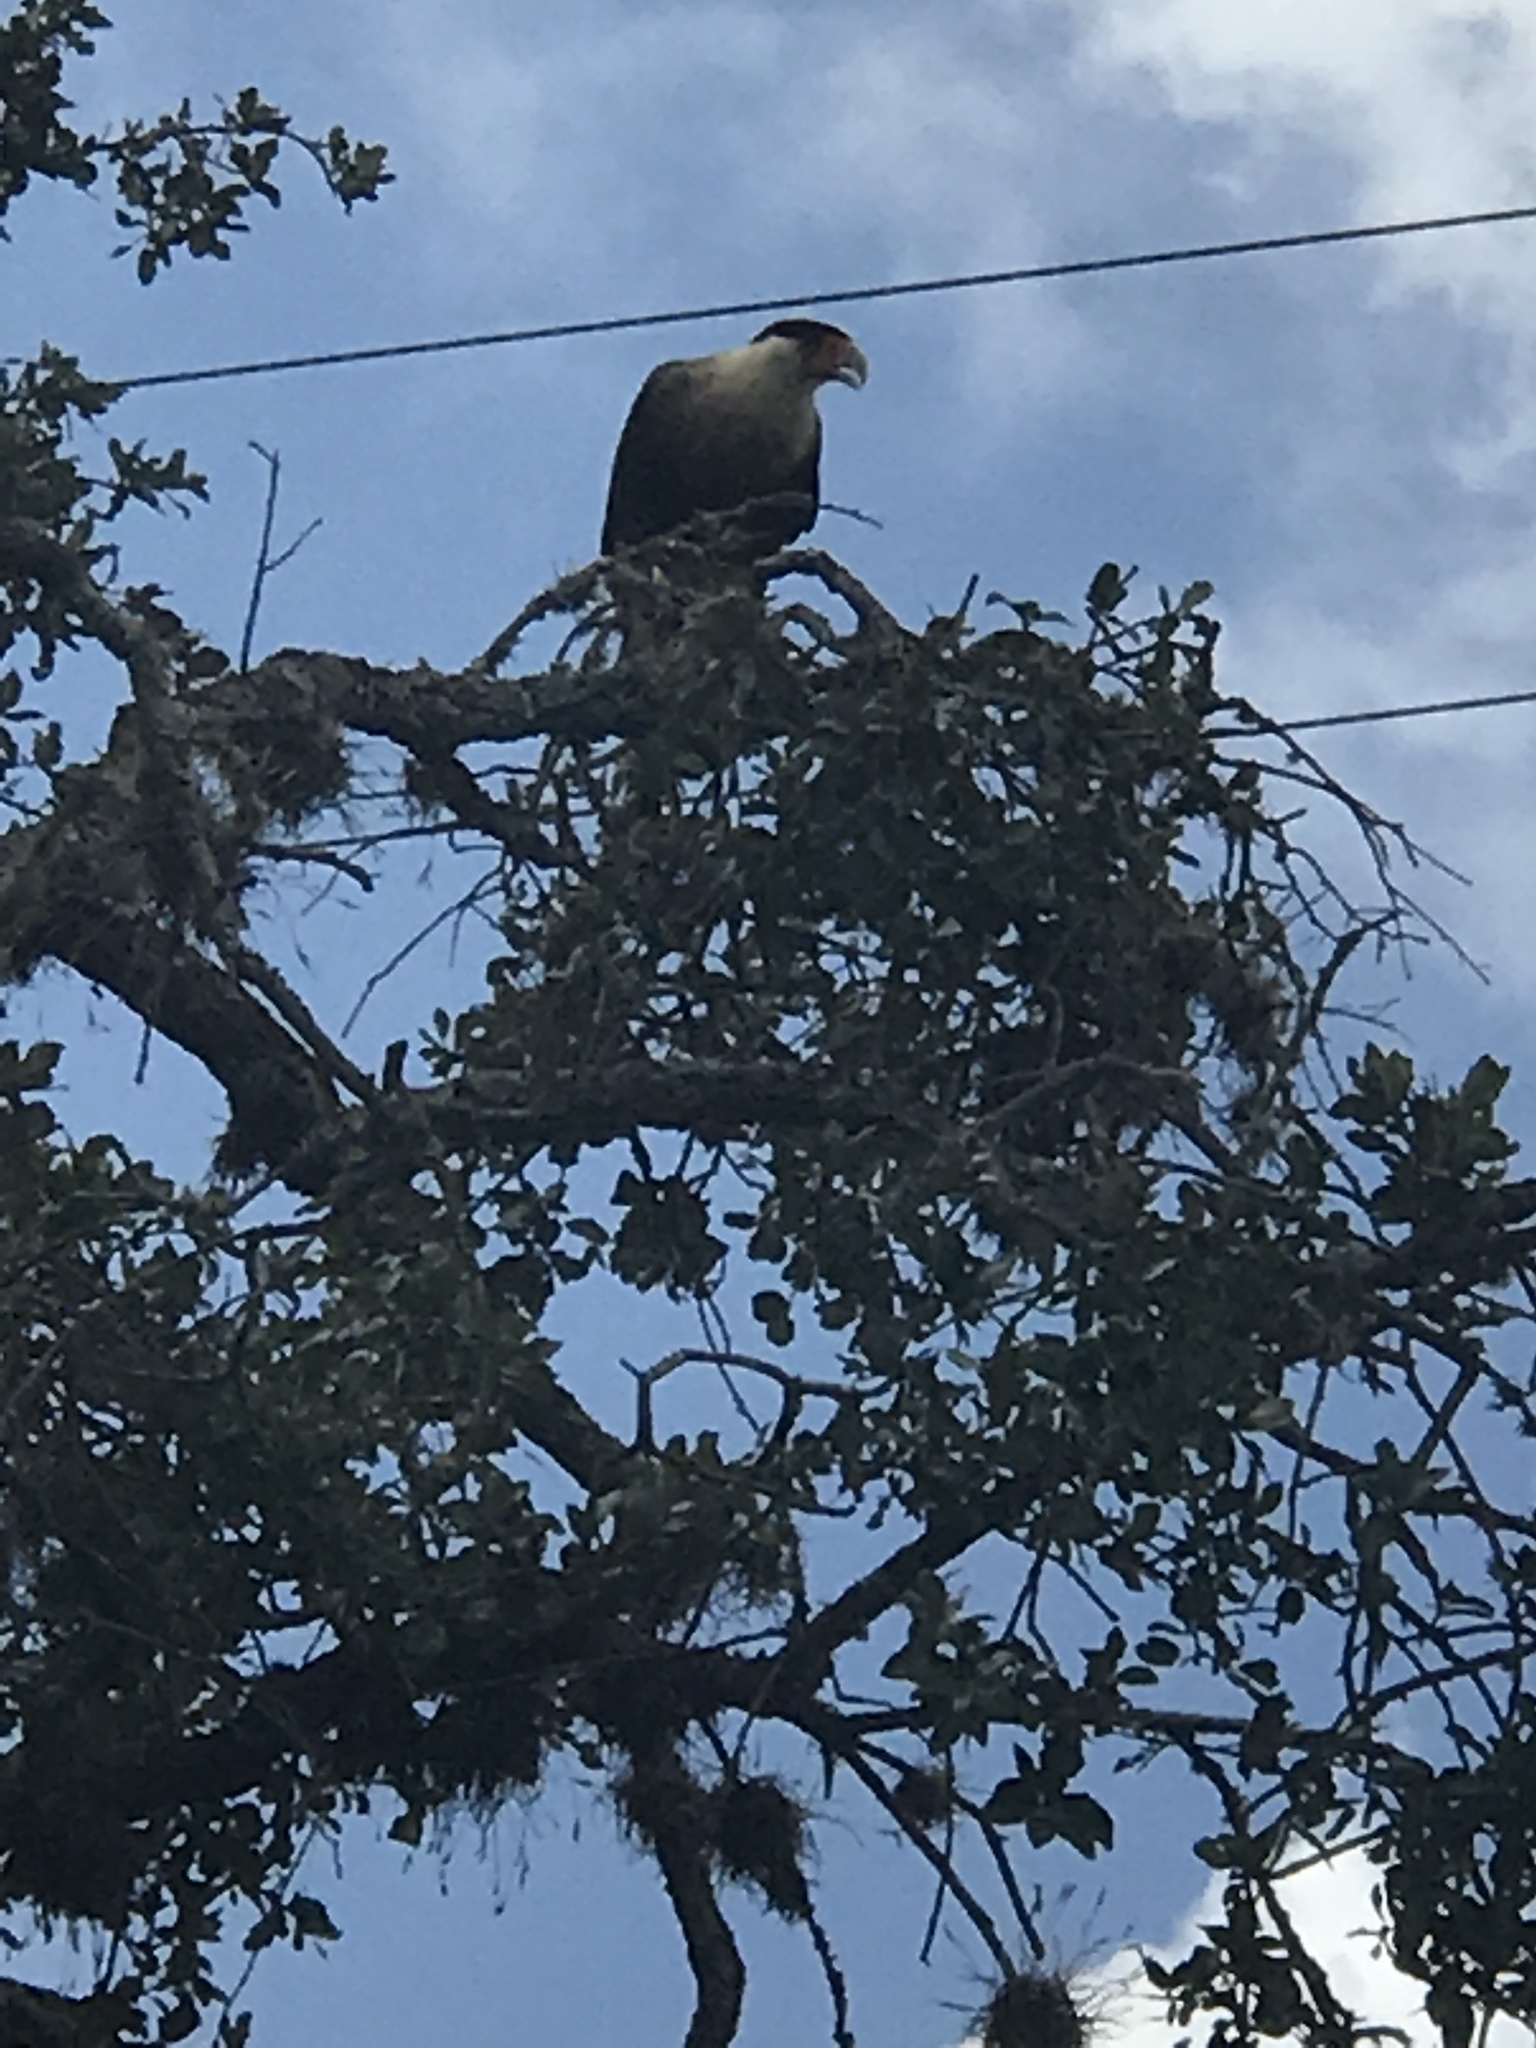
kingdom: Animalia
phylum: Chordata
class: Aves
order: Falconiformes
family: Falconidae
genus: Caracara
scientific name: Caracara plancus
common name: Southern caracara
